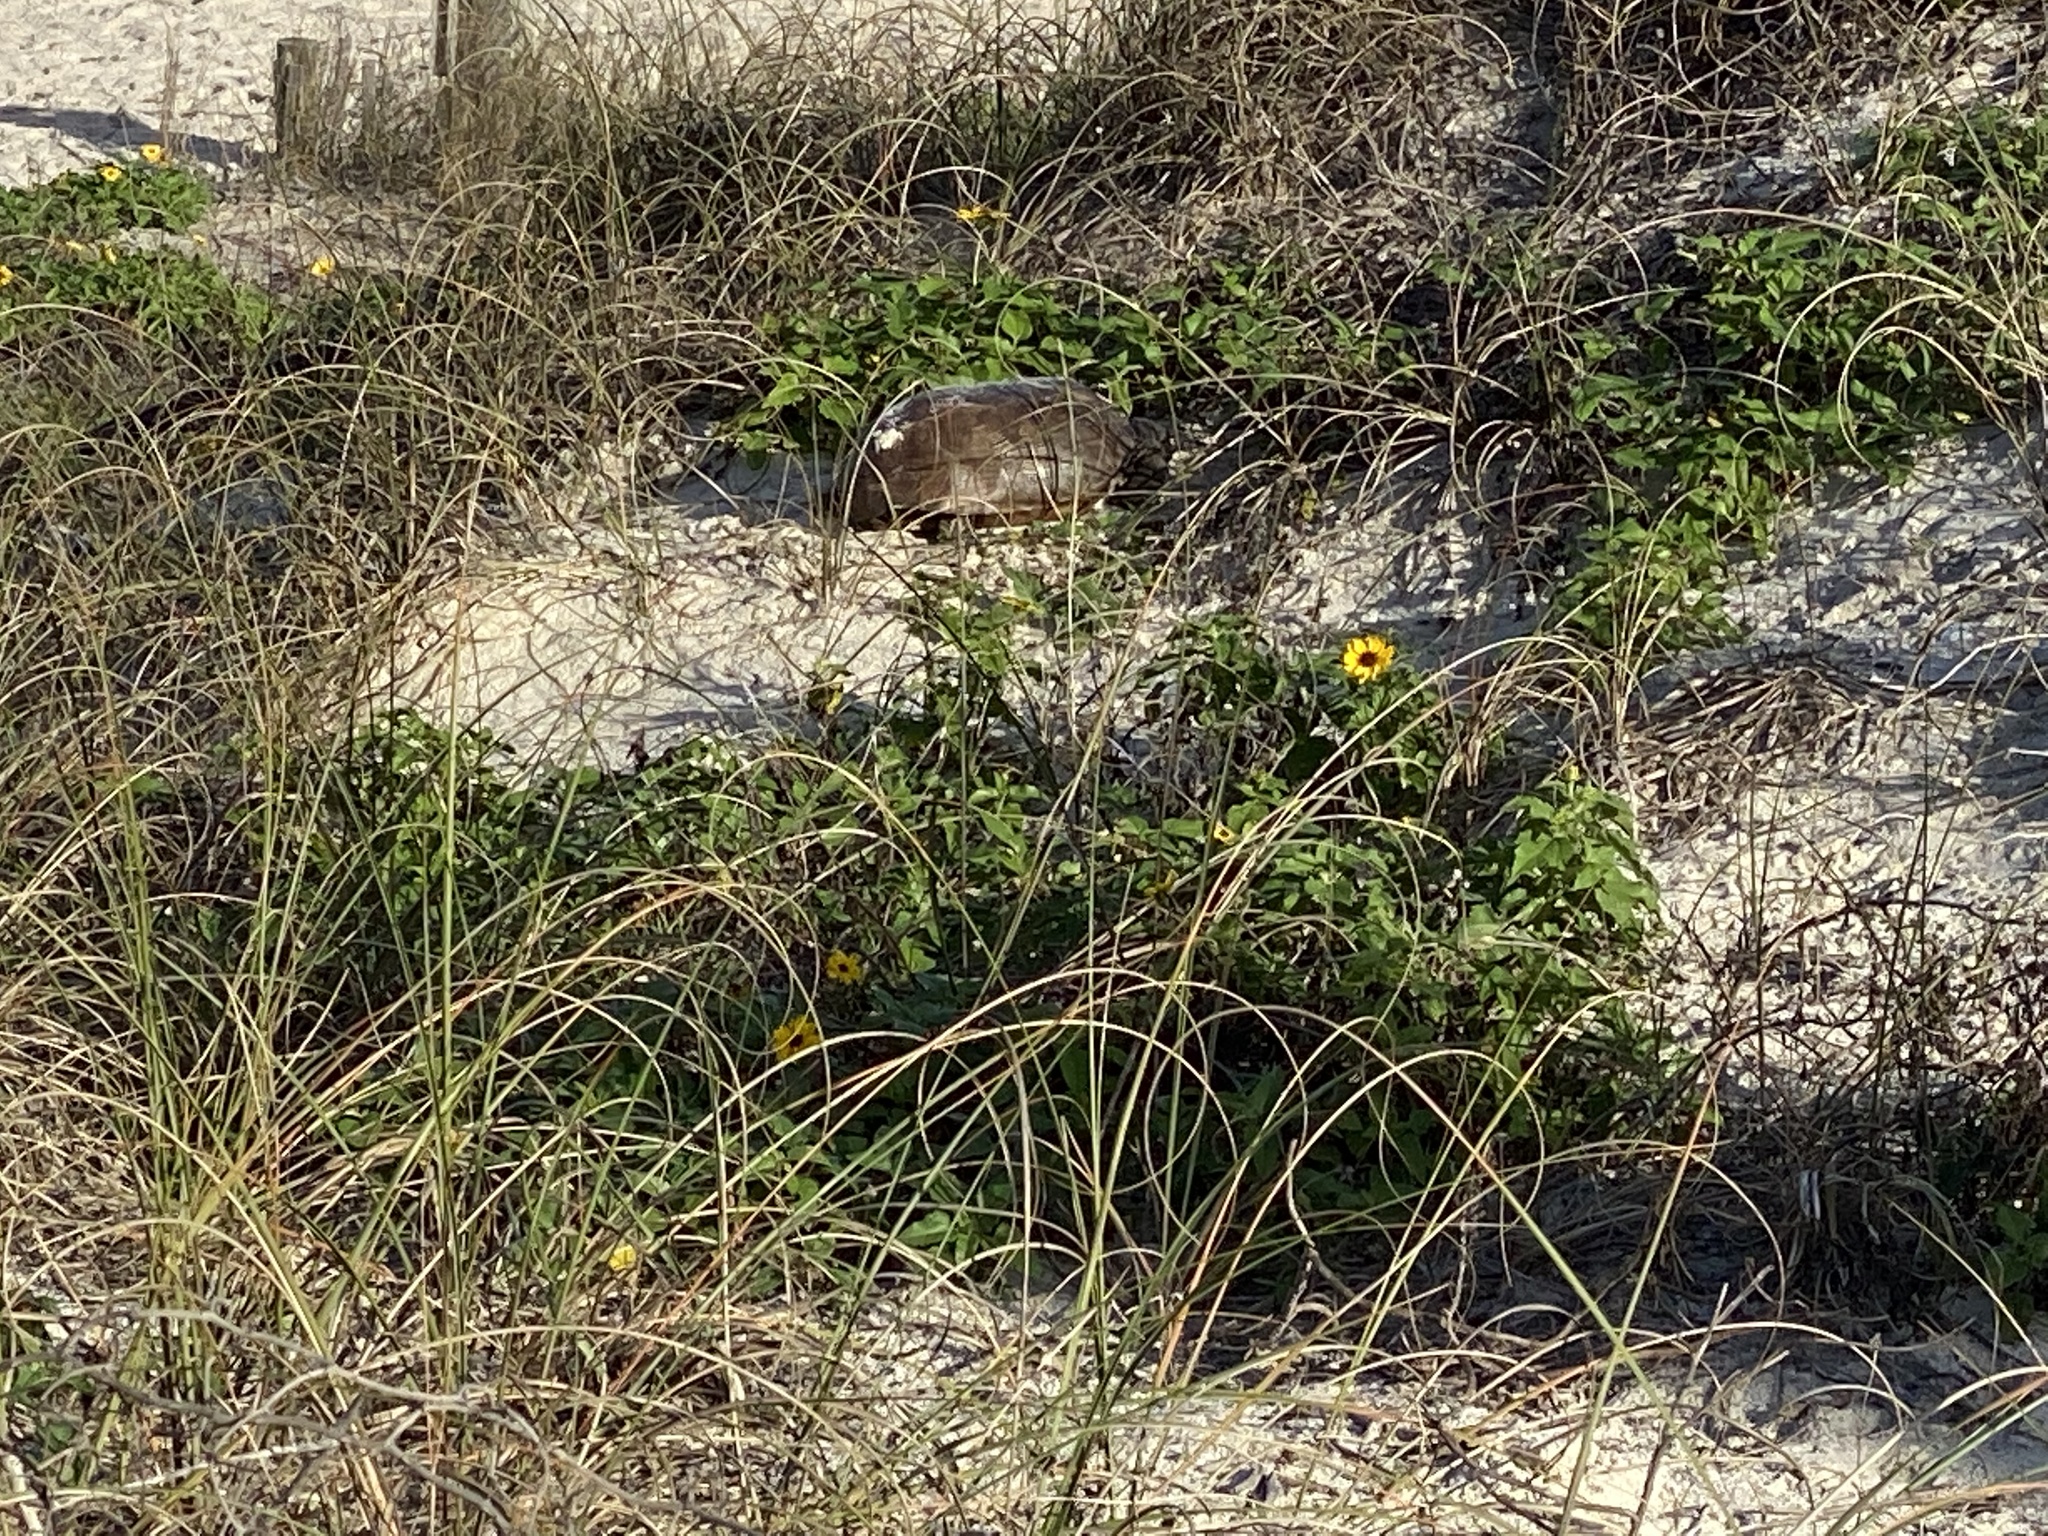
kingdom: Animalia
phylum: Chordata
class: Testudines
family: Testudinidae
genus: Gopherus
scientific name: Gopherus polyphemus
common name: Florida gopher tortoise
